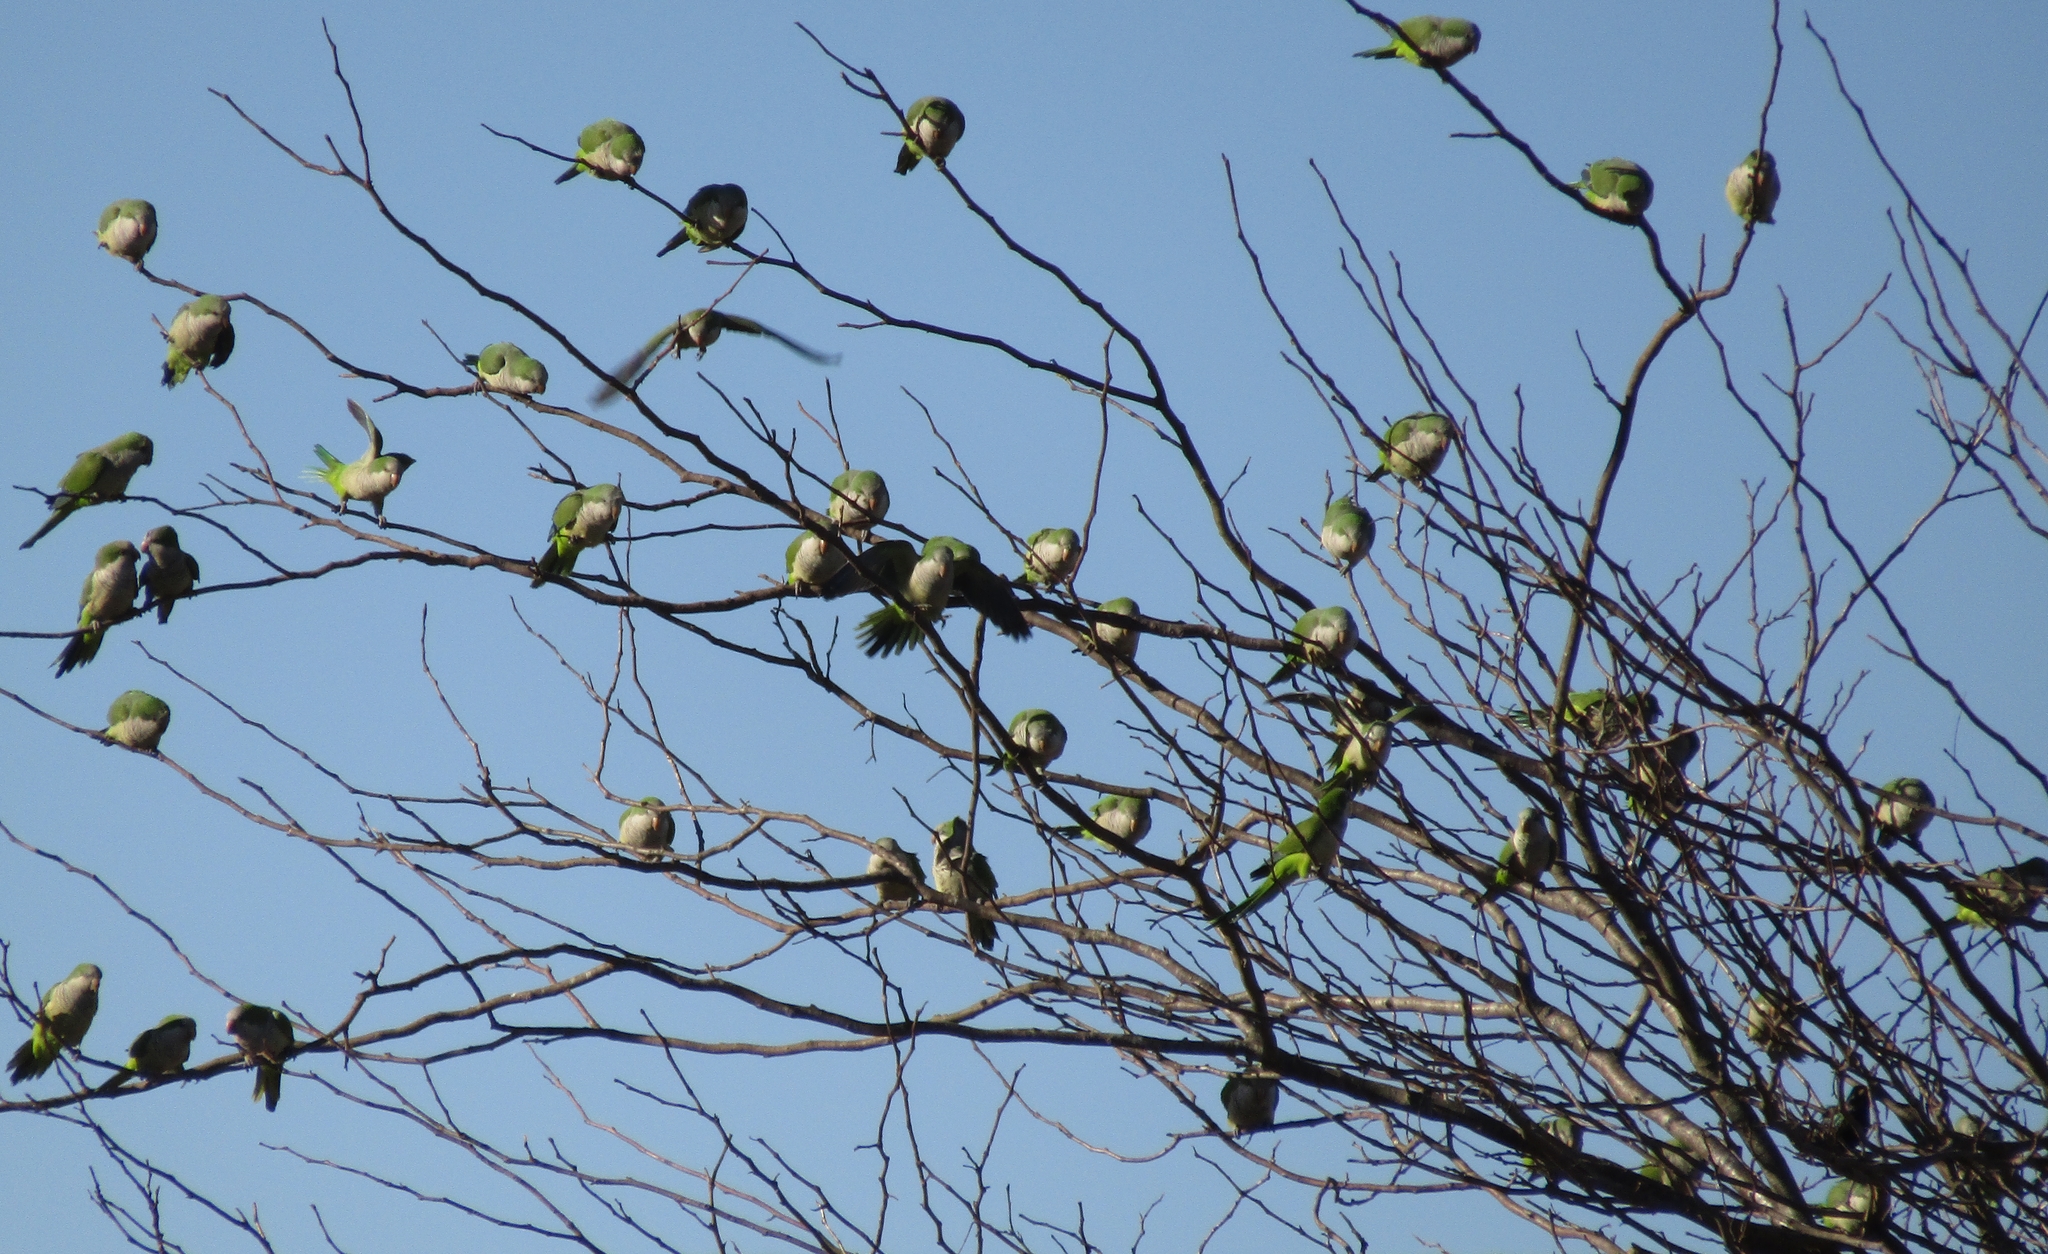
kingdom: Animalia
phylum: Chordata
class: Aves
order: Psittaciformes
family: Psittacidae
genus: Myiopsitta
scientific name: Myiopsitta monachus
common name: Monk parakeet
